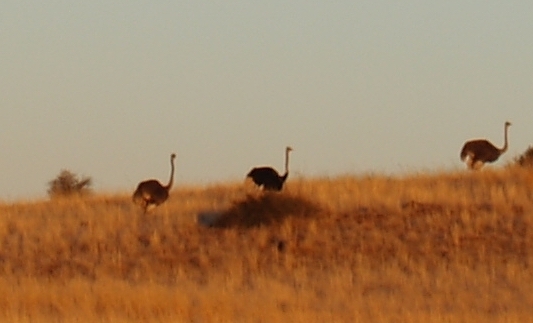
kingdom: Animalia
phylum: Chordata
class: Aves
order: Struthioniformes
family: Struthionidae
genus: Struthio
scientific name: Struthio camelus
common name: Common ostrich
